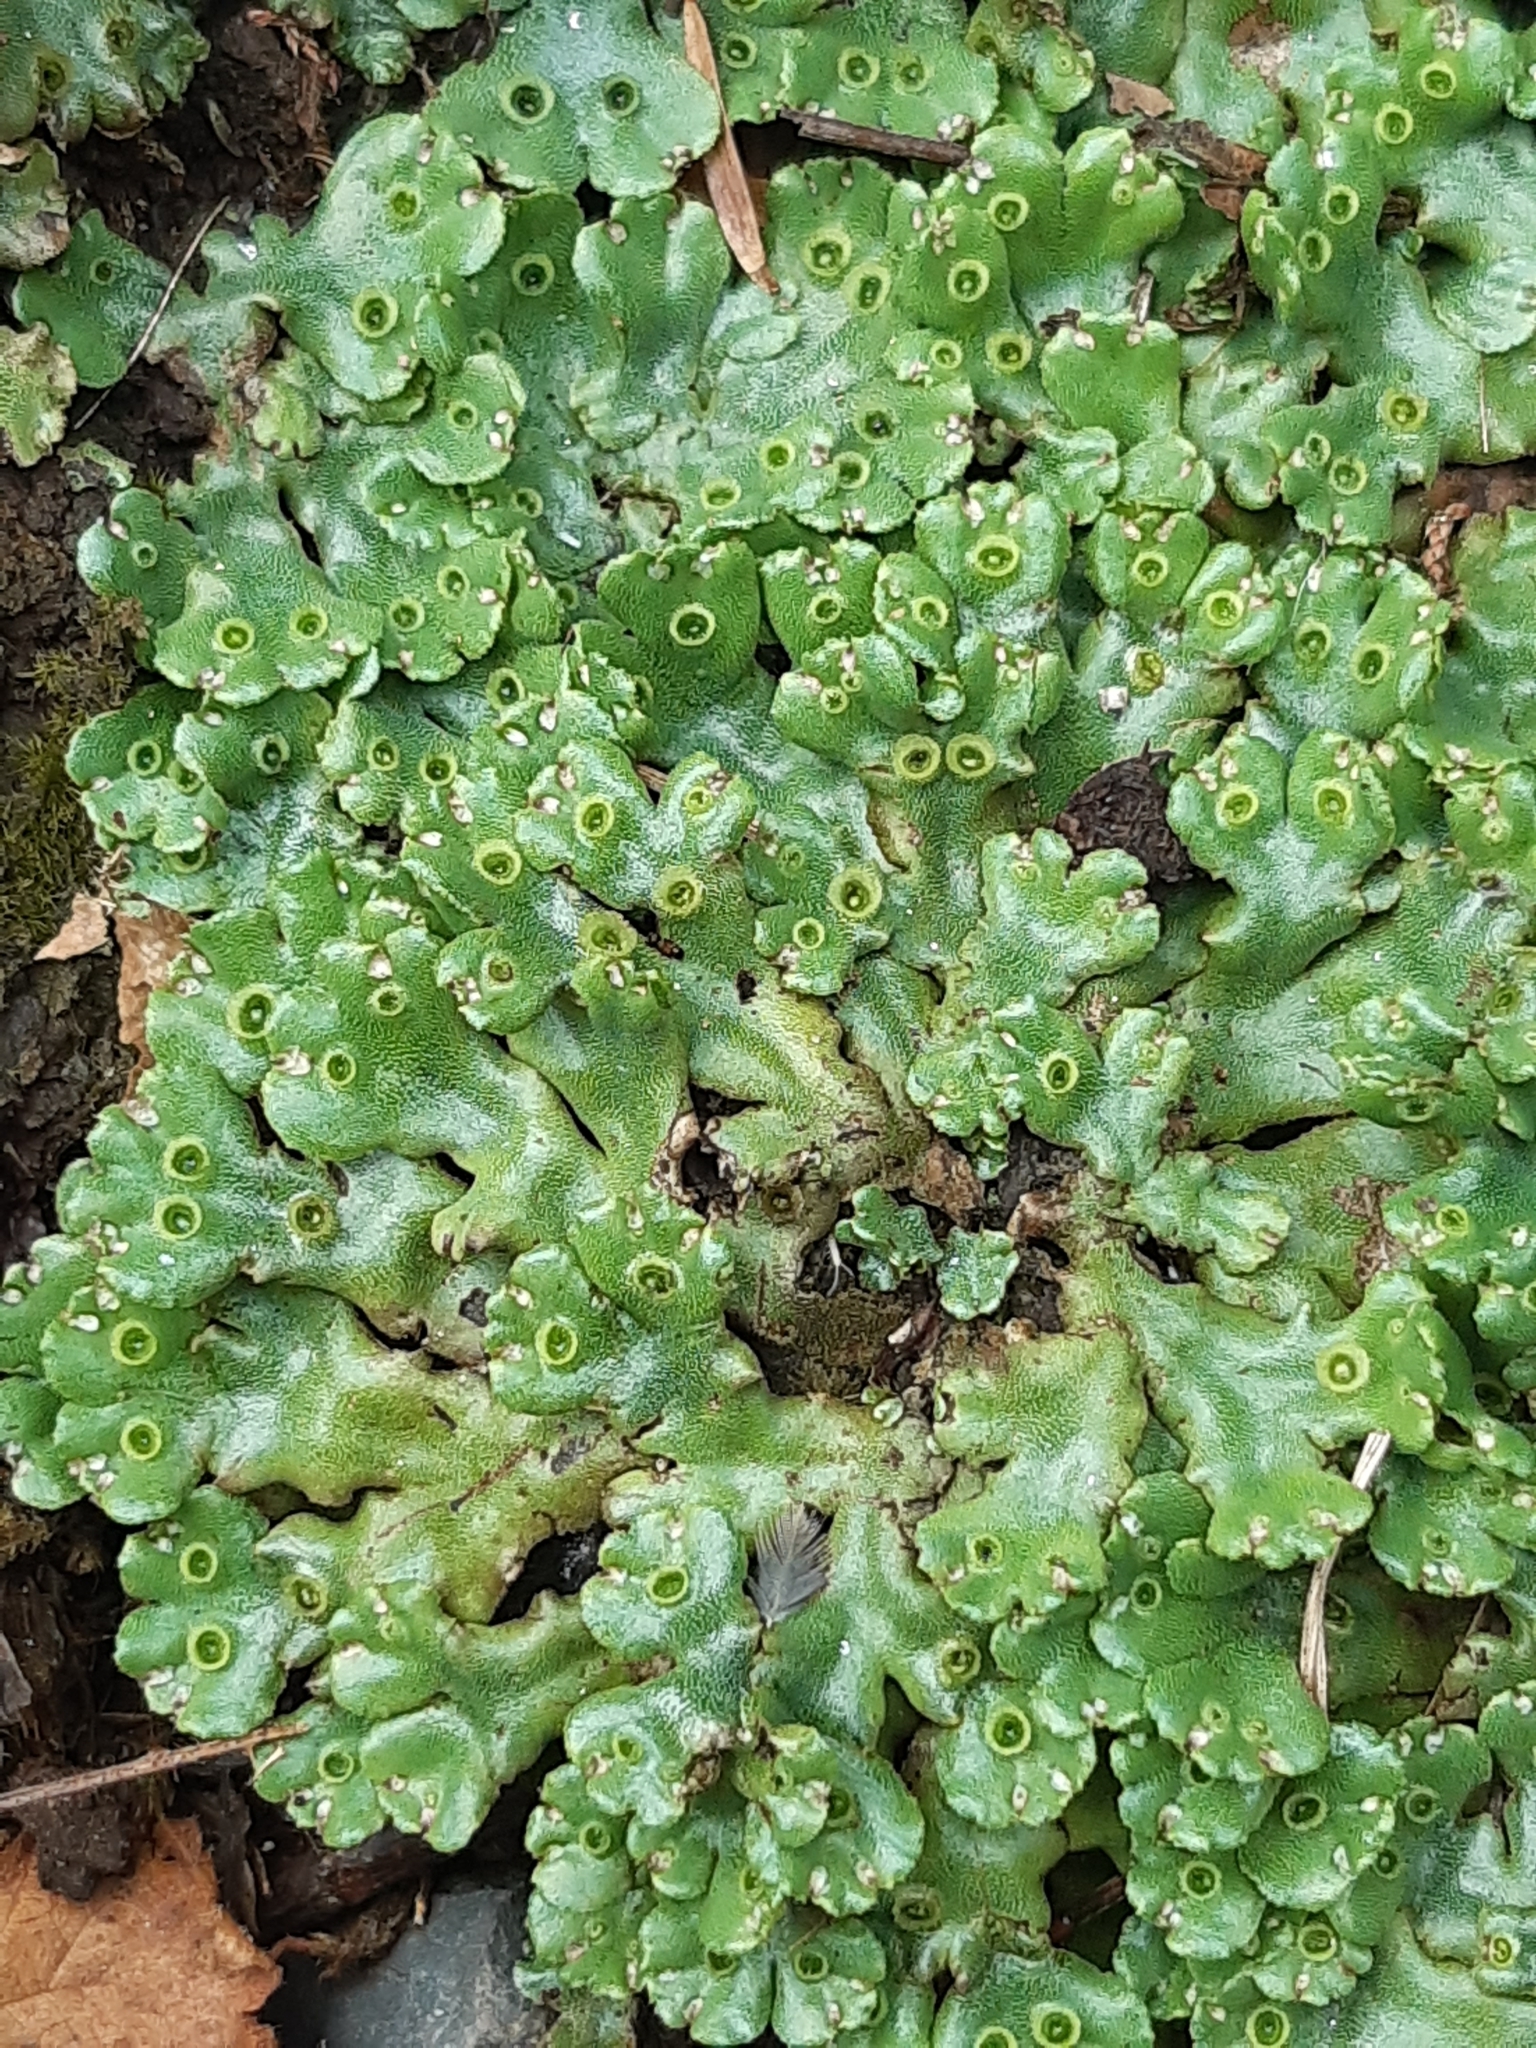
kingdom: Plantae
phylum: Marchantiophyta
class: Marchantiopsida
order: Marchantiales
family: Marchantiaceae
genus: Marchantia
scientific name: Marchantia berteroana
